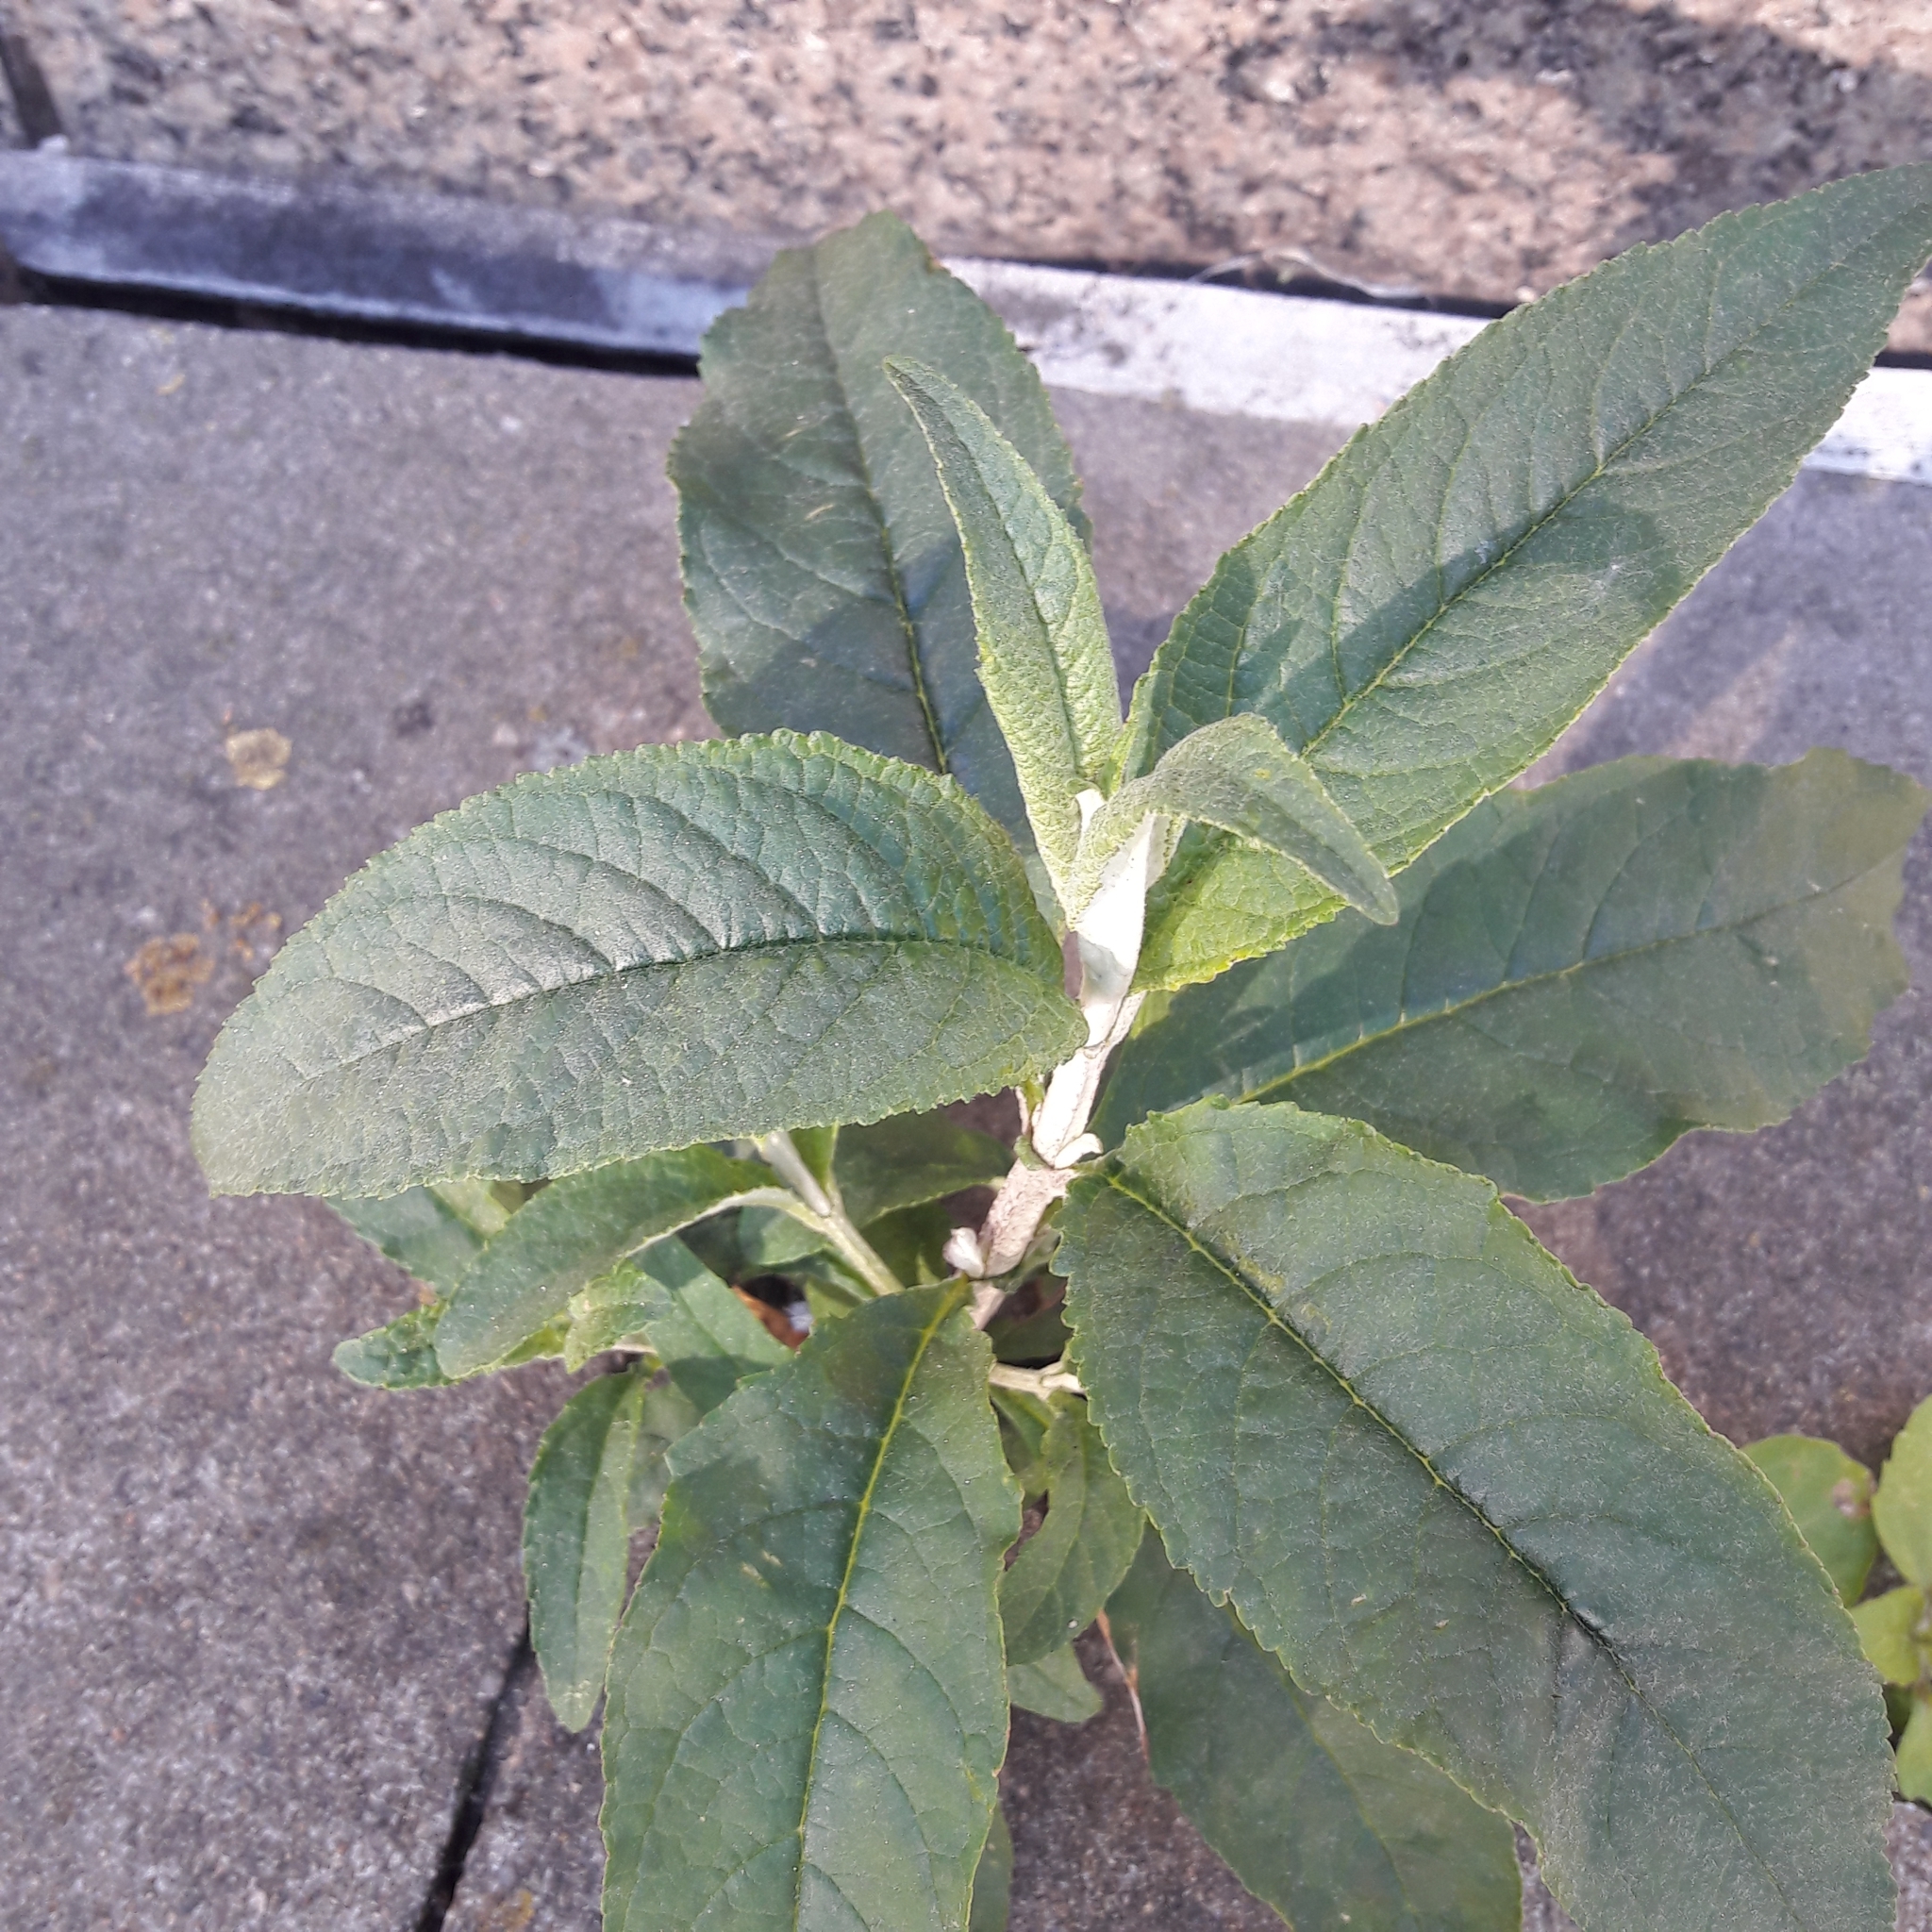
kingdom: Plantae
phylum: Tracheophyta
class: Magnoliopsida
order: Lamiales
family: Scrophulariaceae
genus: Buddleja
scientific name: Buddleja davidii
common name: Butterfly-bush
